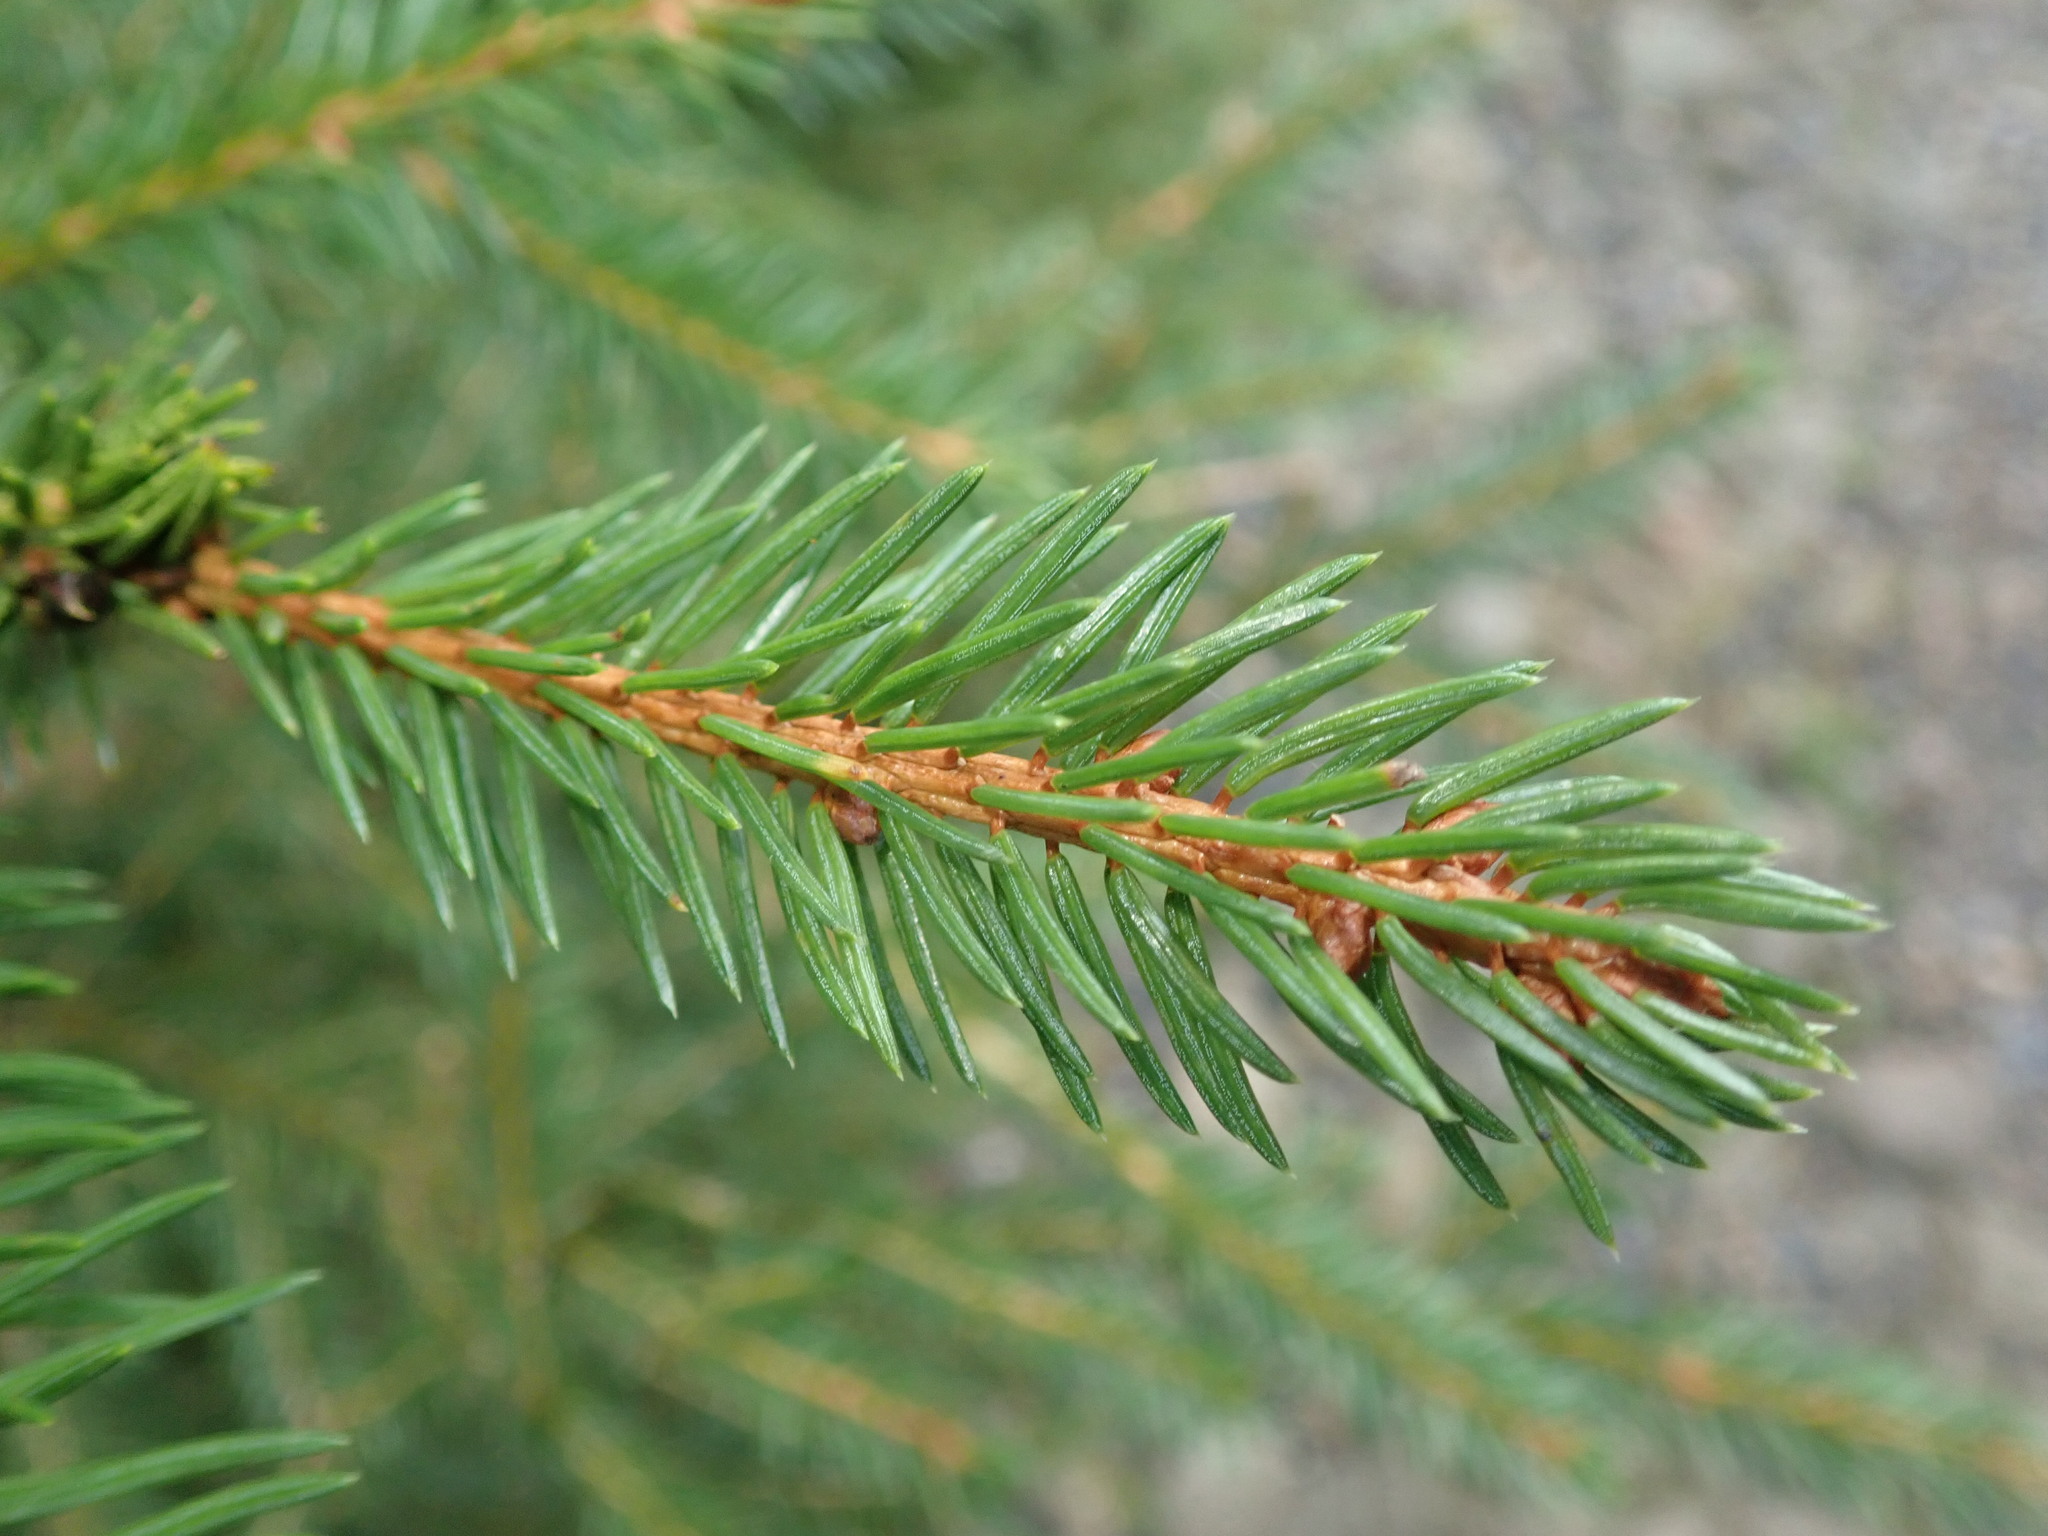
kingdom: Plantae
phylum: Tracheophyta
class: Pinopsida
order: Pinales
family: Pinaceae
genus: Picea
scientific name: Picea abies
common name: Norway spruce
